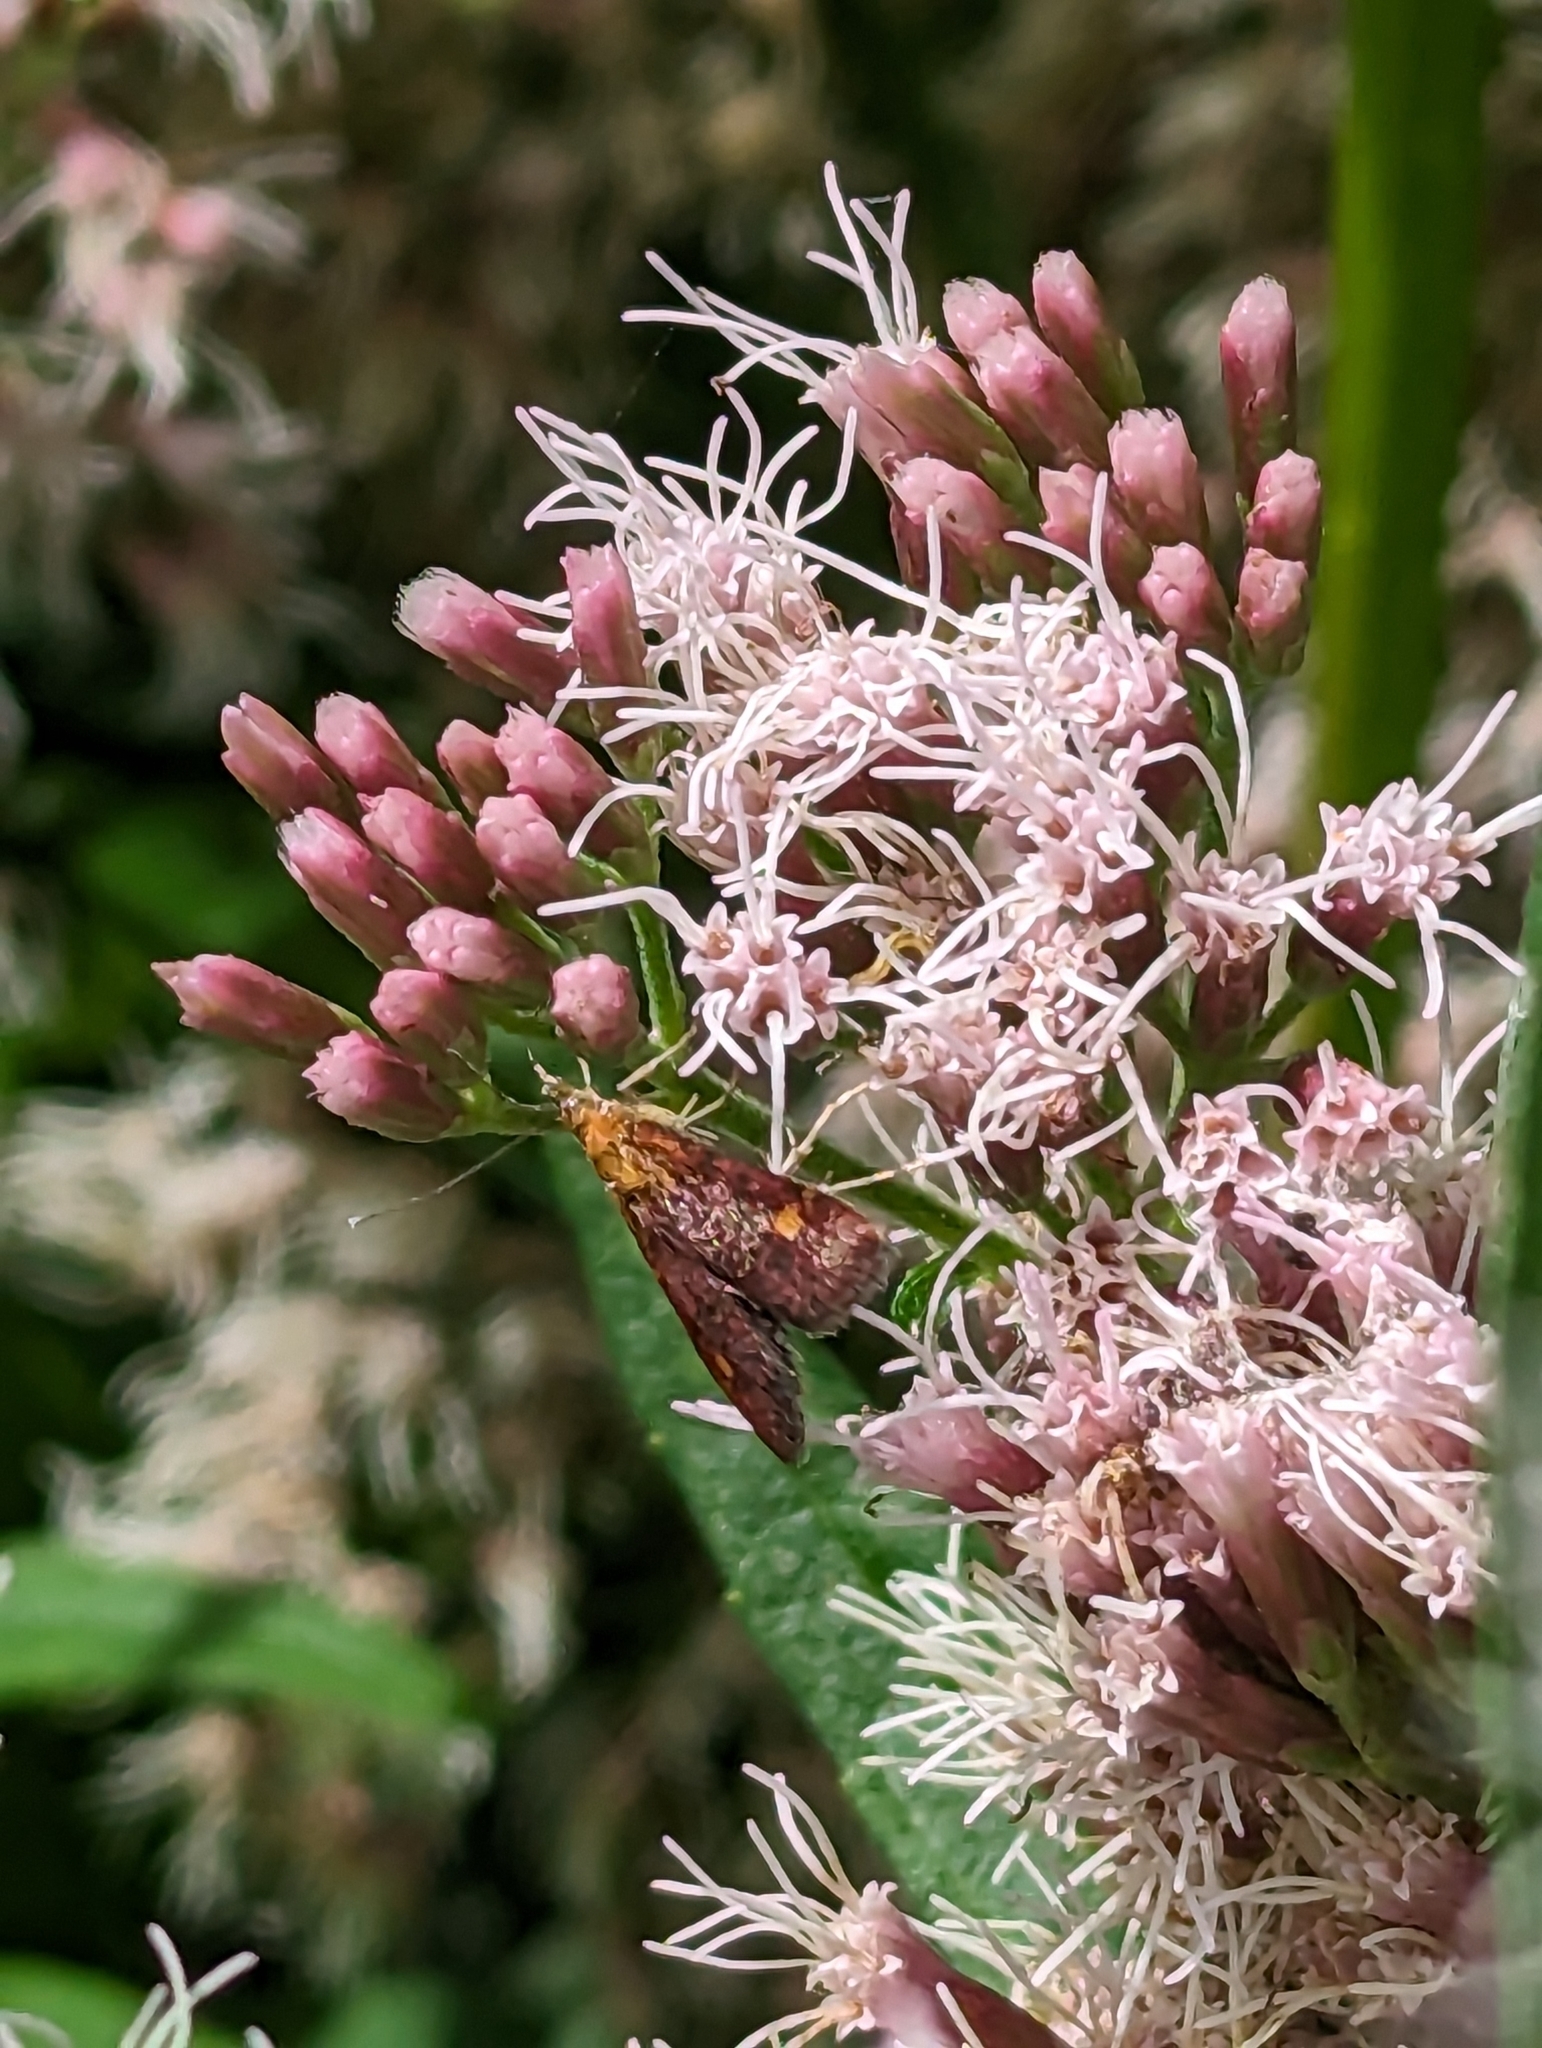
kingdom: Animalia
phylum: Arthropoda
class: Insecta
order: Lepidoptera
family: Crambidae
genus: Pyrausta
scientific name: Pyrausta aurata
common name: Small purple & gold
